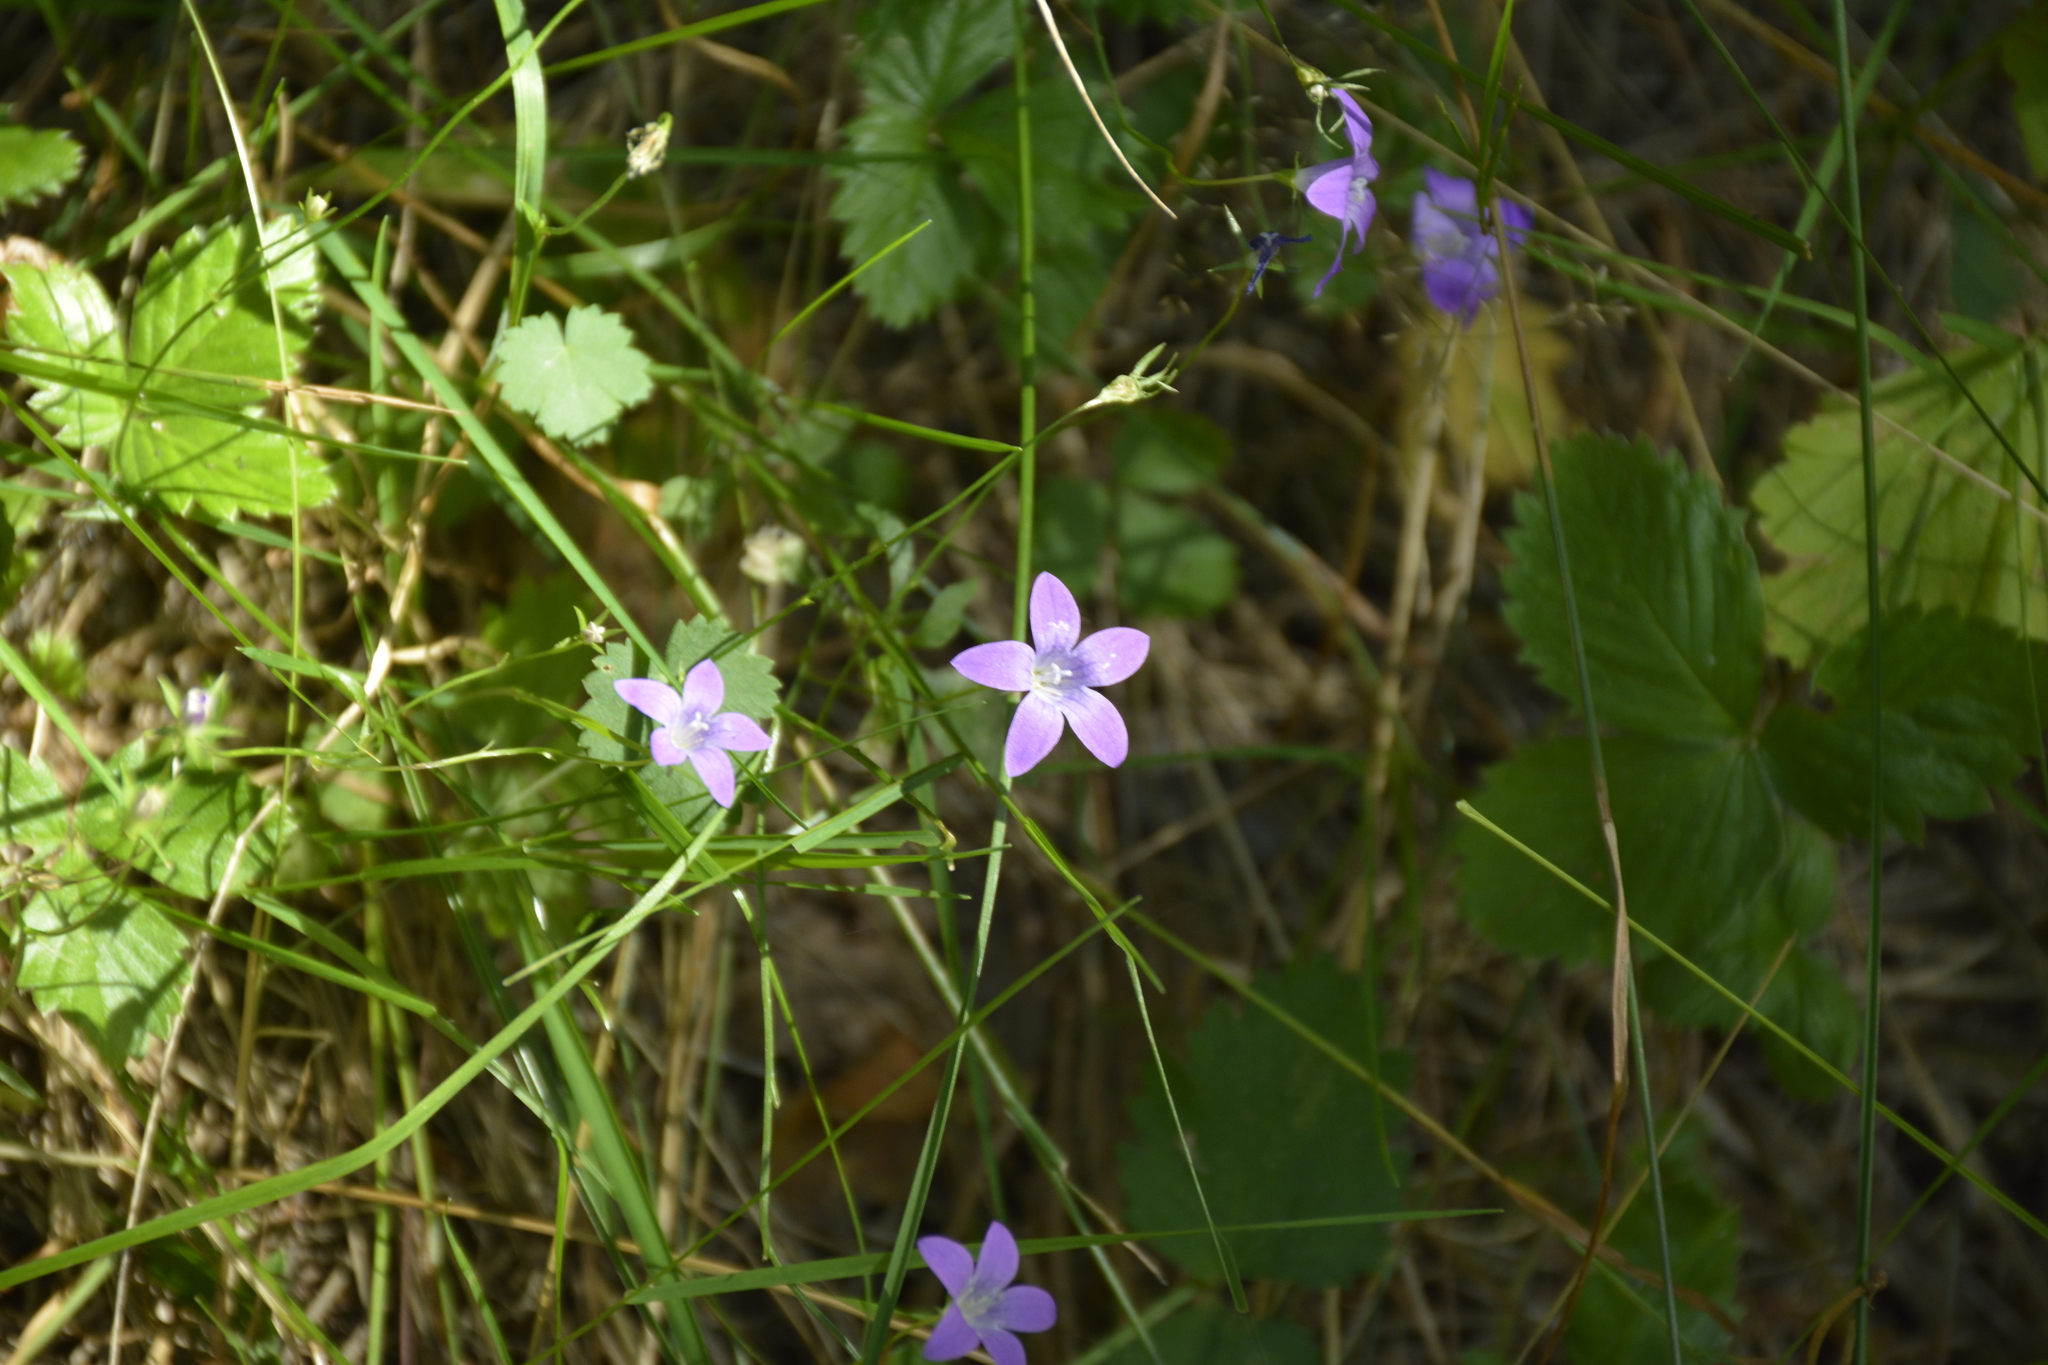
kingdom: Plantae
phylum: Tracheophyta
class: Magnoliopsida
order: Asterales
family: Campanulaceae
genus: Campanula
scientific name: Campanula patula
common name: Spreading bellflower
